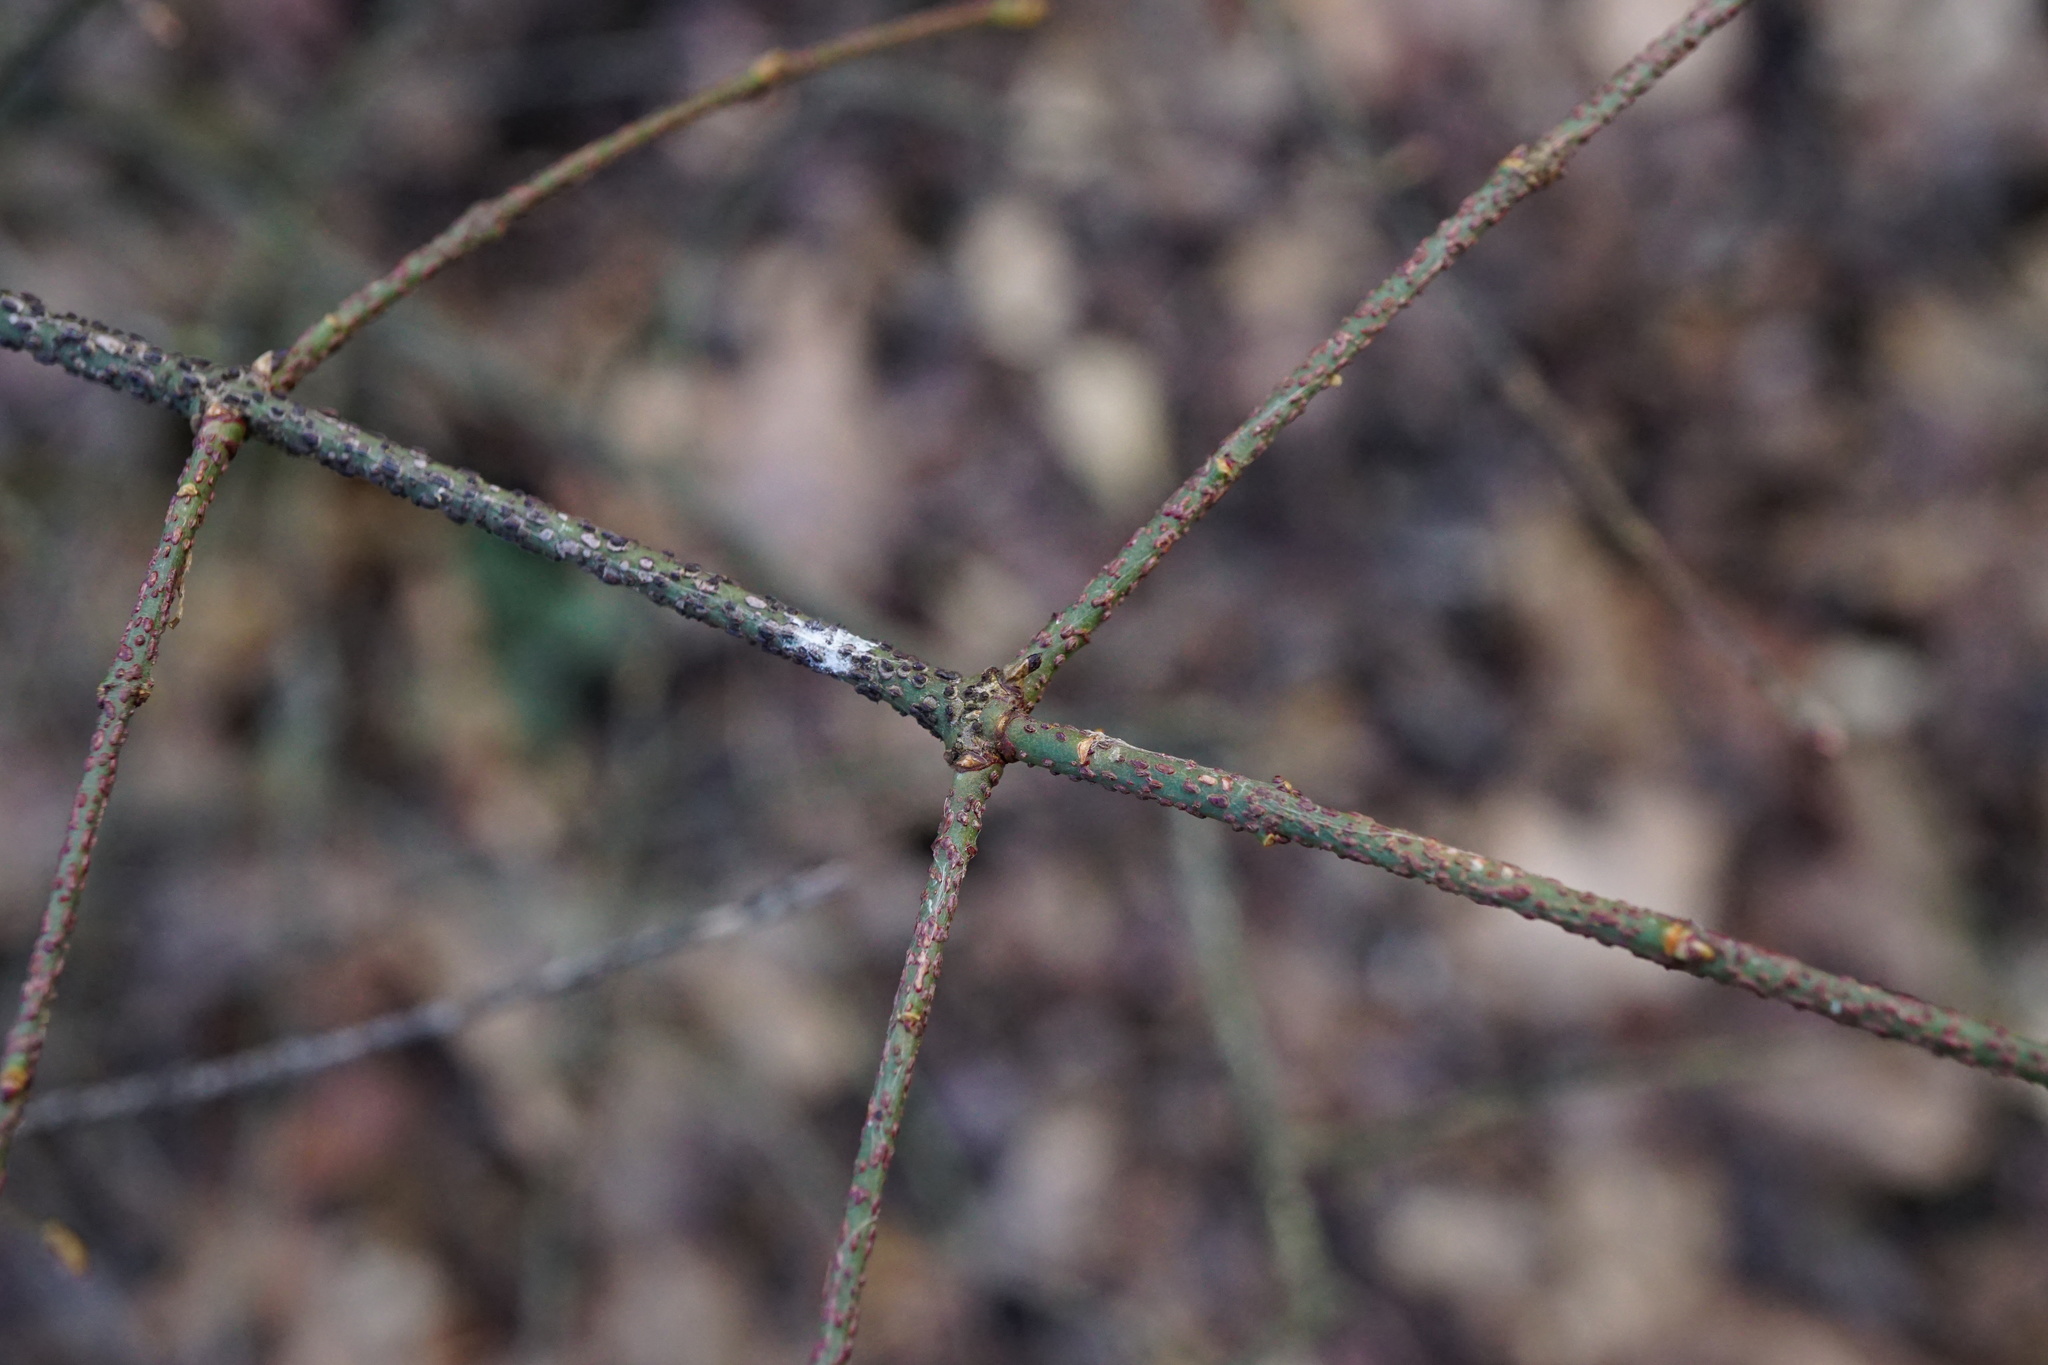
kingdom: Plantae
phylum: Tracheophyta
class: Magnoliopsida
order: Celastrales
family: Celastraceae
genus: Euonymus
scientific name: Euonymus verrucosus
